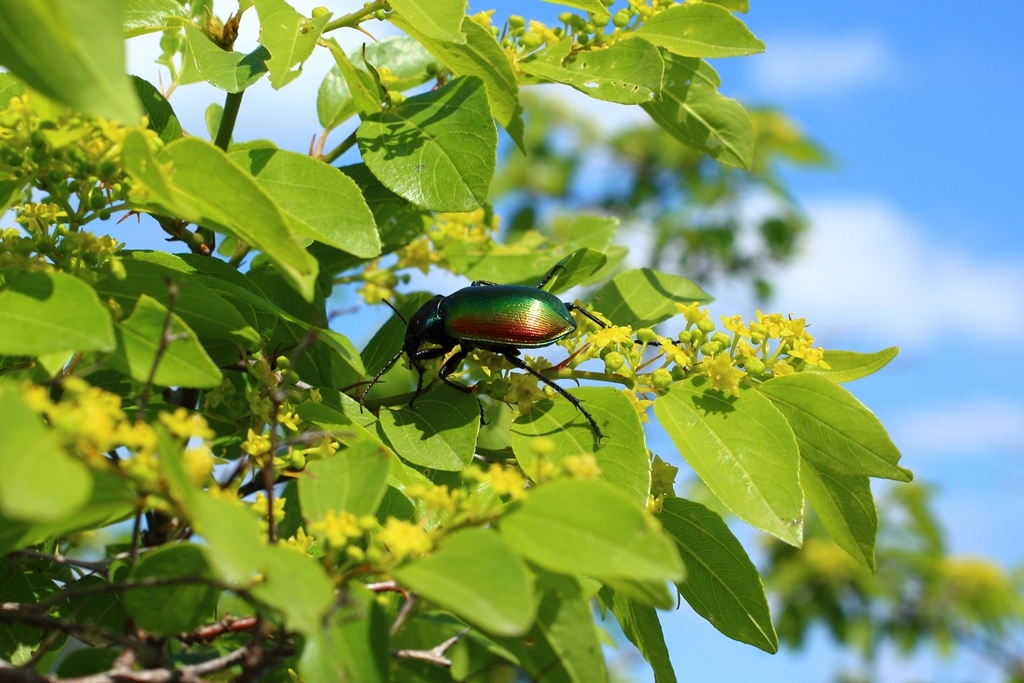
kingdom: Animalia
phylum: Arthropoda
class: Insecta
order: Coleoptera
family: Carabidae
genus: Calosoma
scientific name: Calosoma sycophanta
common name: Forest caterpillar hunter
